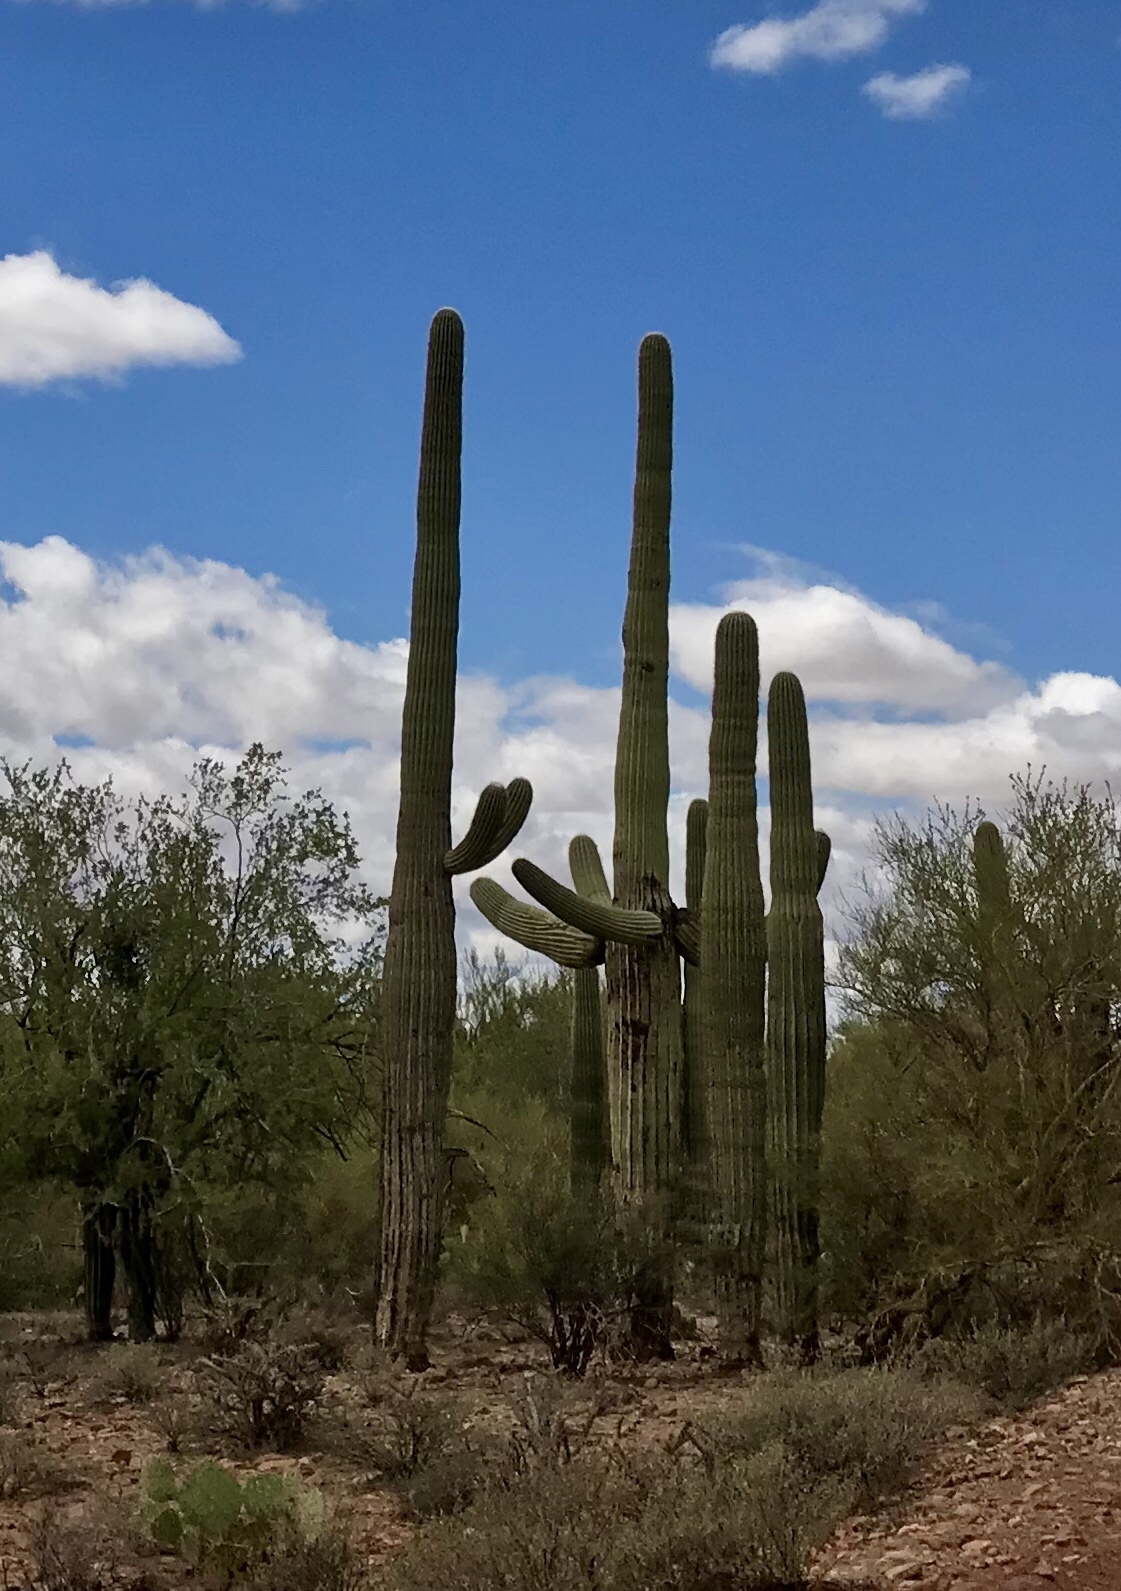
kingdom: Plantae
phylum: Tracheophyta
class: Magnoliopsida
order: Caryophyllales
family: Cactaceae
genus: Carnegiea
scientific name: Carnegiea gigantea
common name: Saguaro
